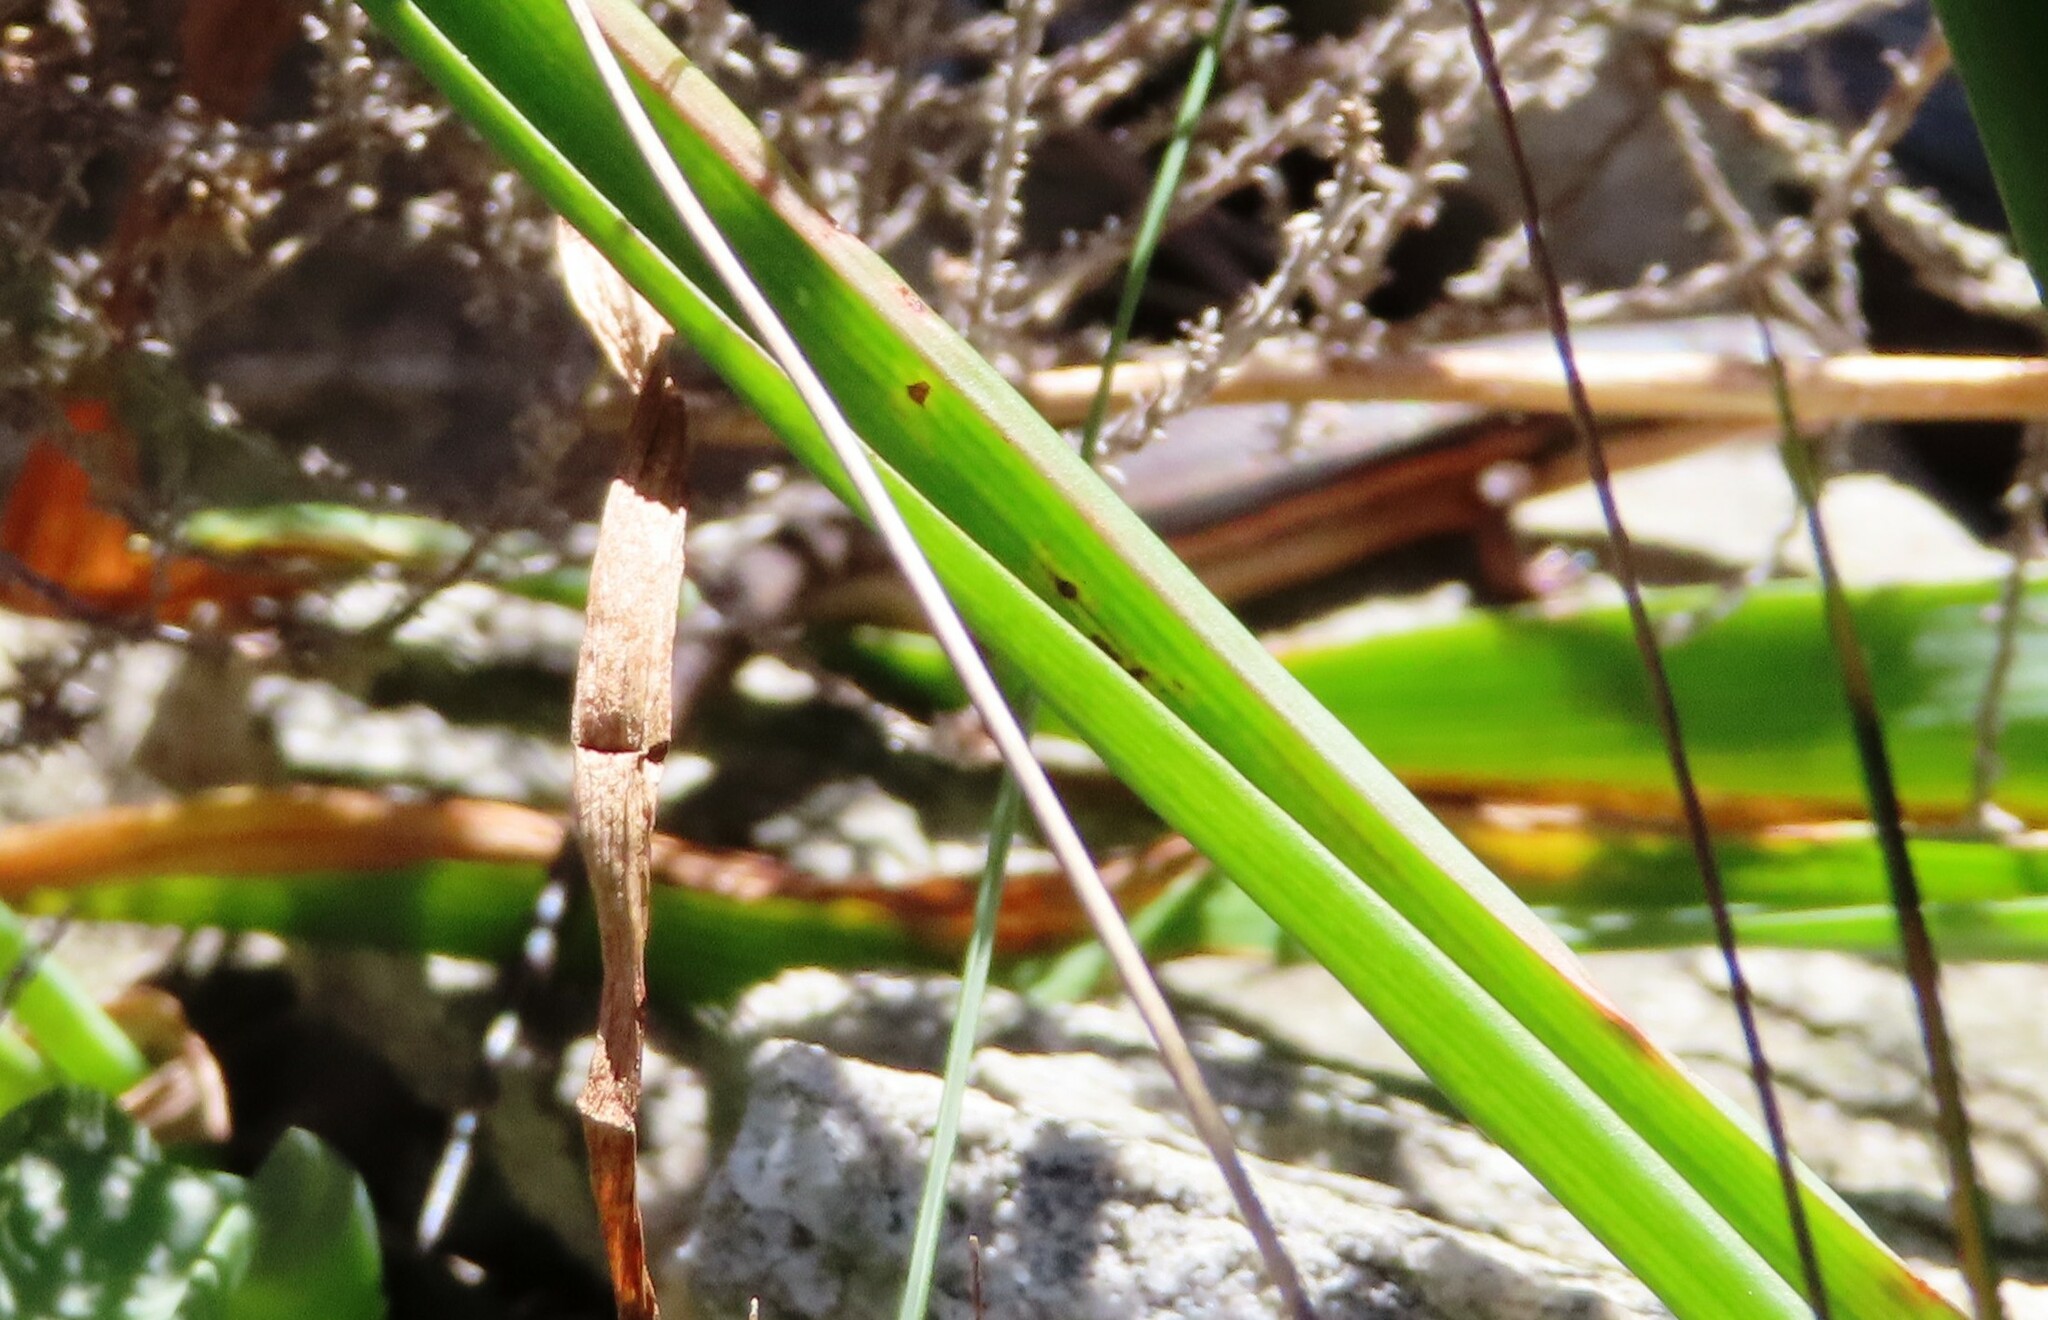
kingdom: Animalia
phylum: Chordata
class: Squamata
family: Scincidae
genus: Trachylepis
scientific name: Trachylepis homalocephala
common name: Red-sided skink
